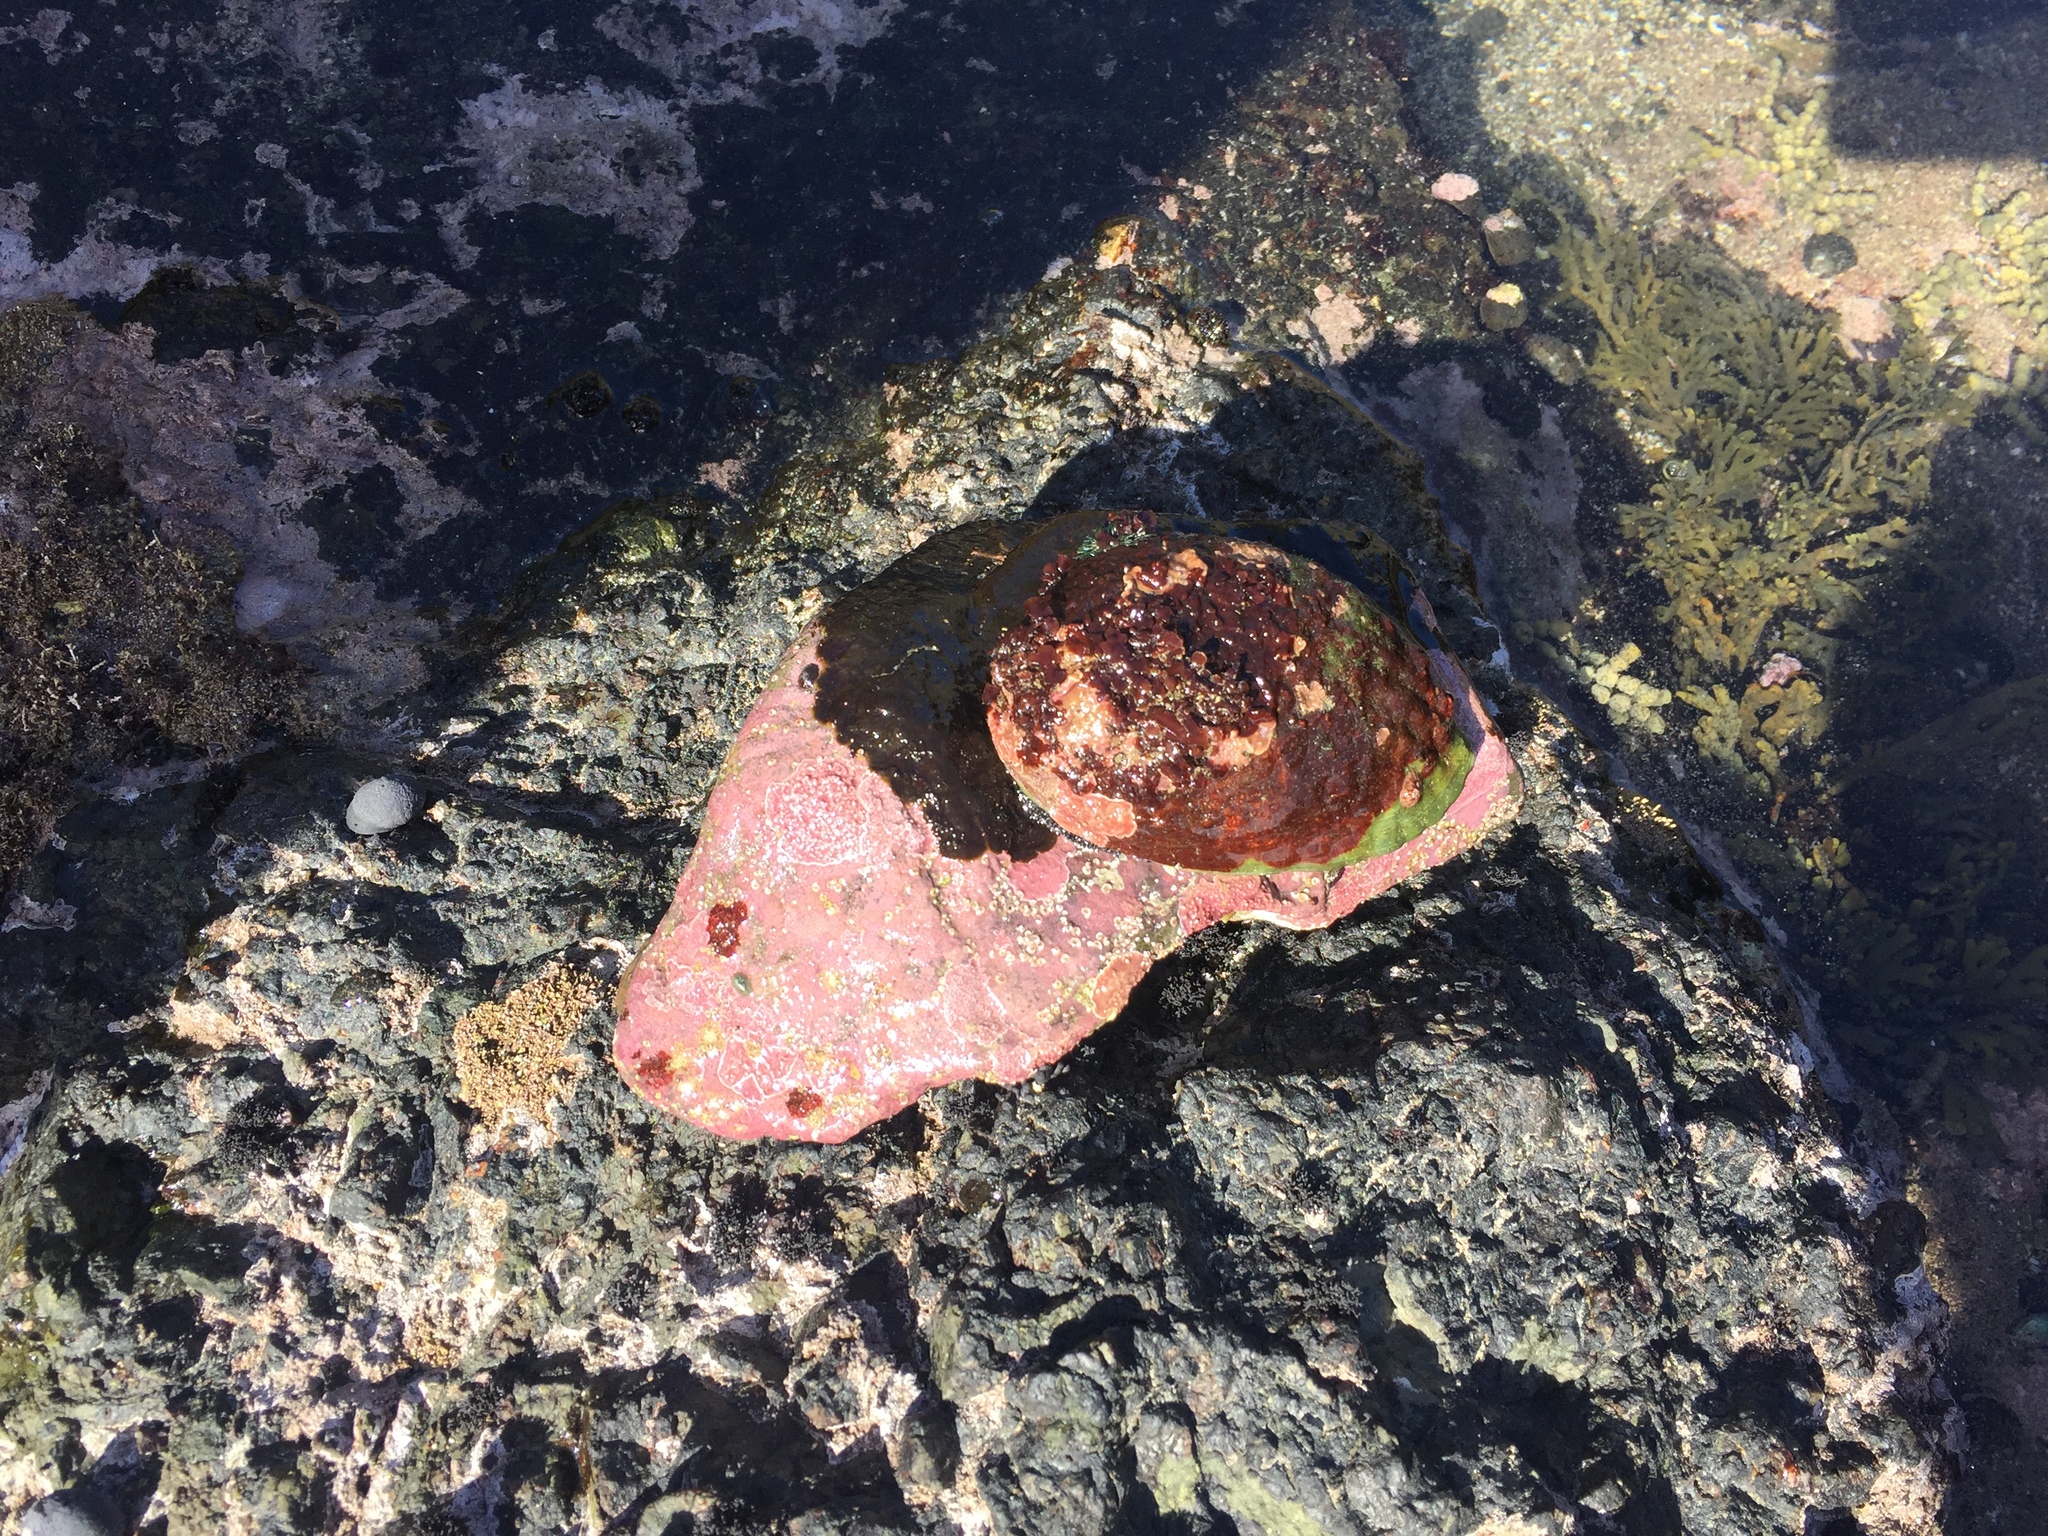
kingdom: Animalia
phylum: Mollusca
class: Gastropoda
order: Lepetellida
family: Haliotidae
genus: Haliotis
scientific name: Haliotis iris
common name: Abalone
